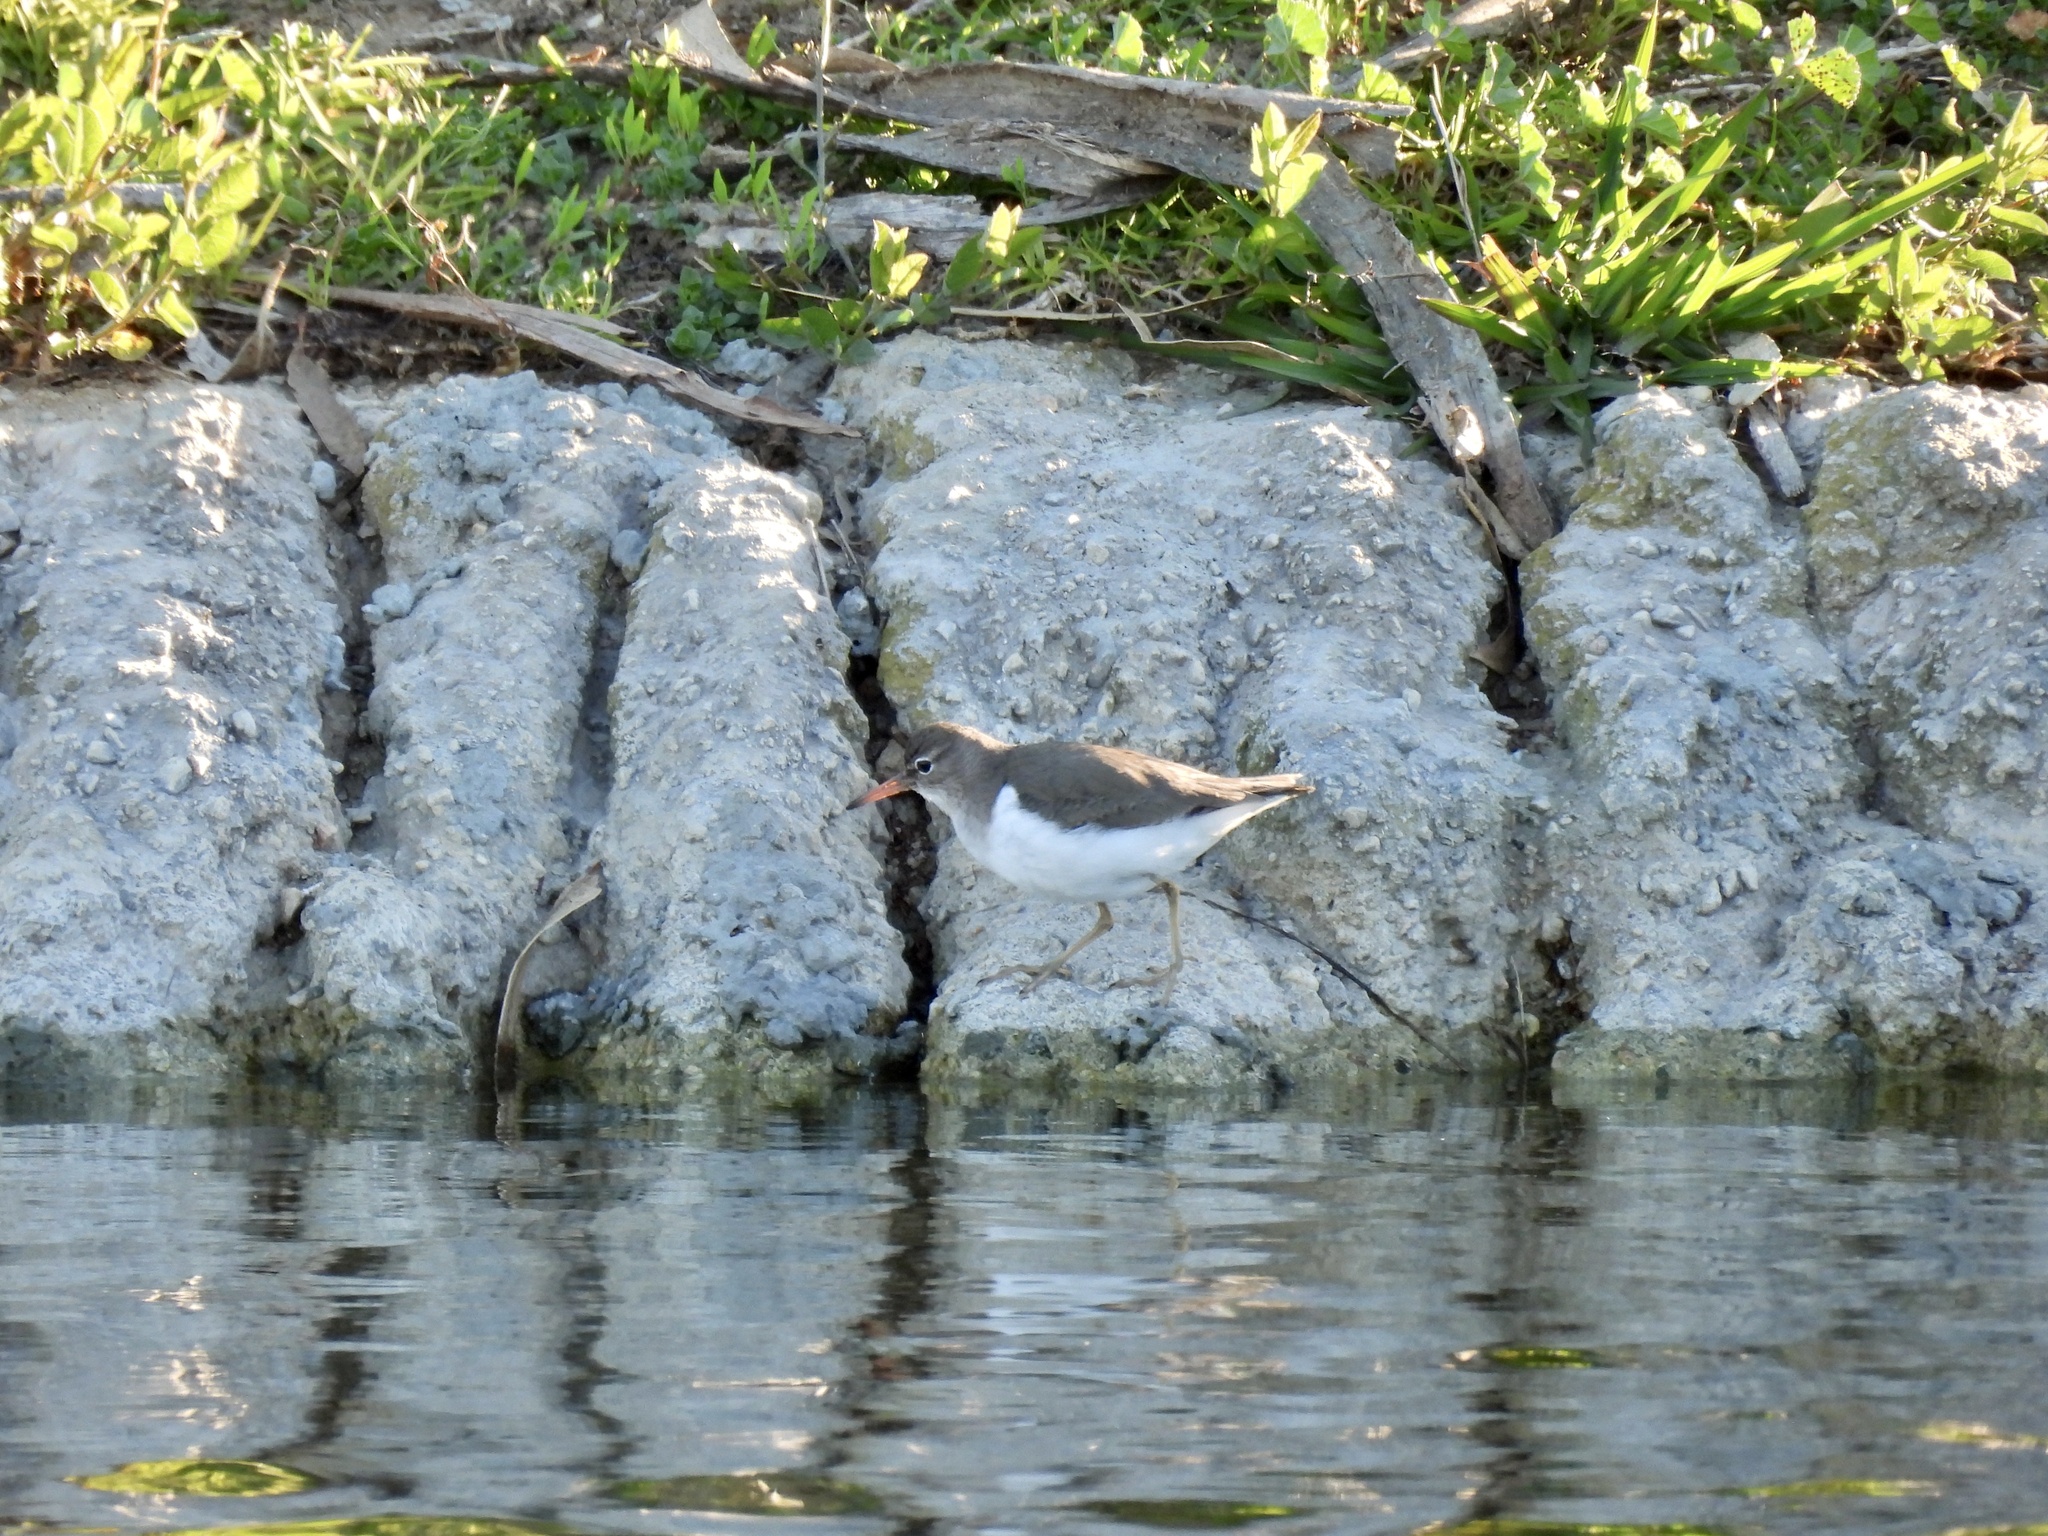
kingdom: Animalia
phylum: Chordata
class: Aves
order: Charadriiformes
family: Scolopacidae
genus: Actitis
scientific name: Actitis macularius
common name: Spotted sandpiper
